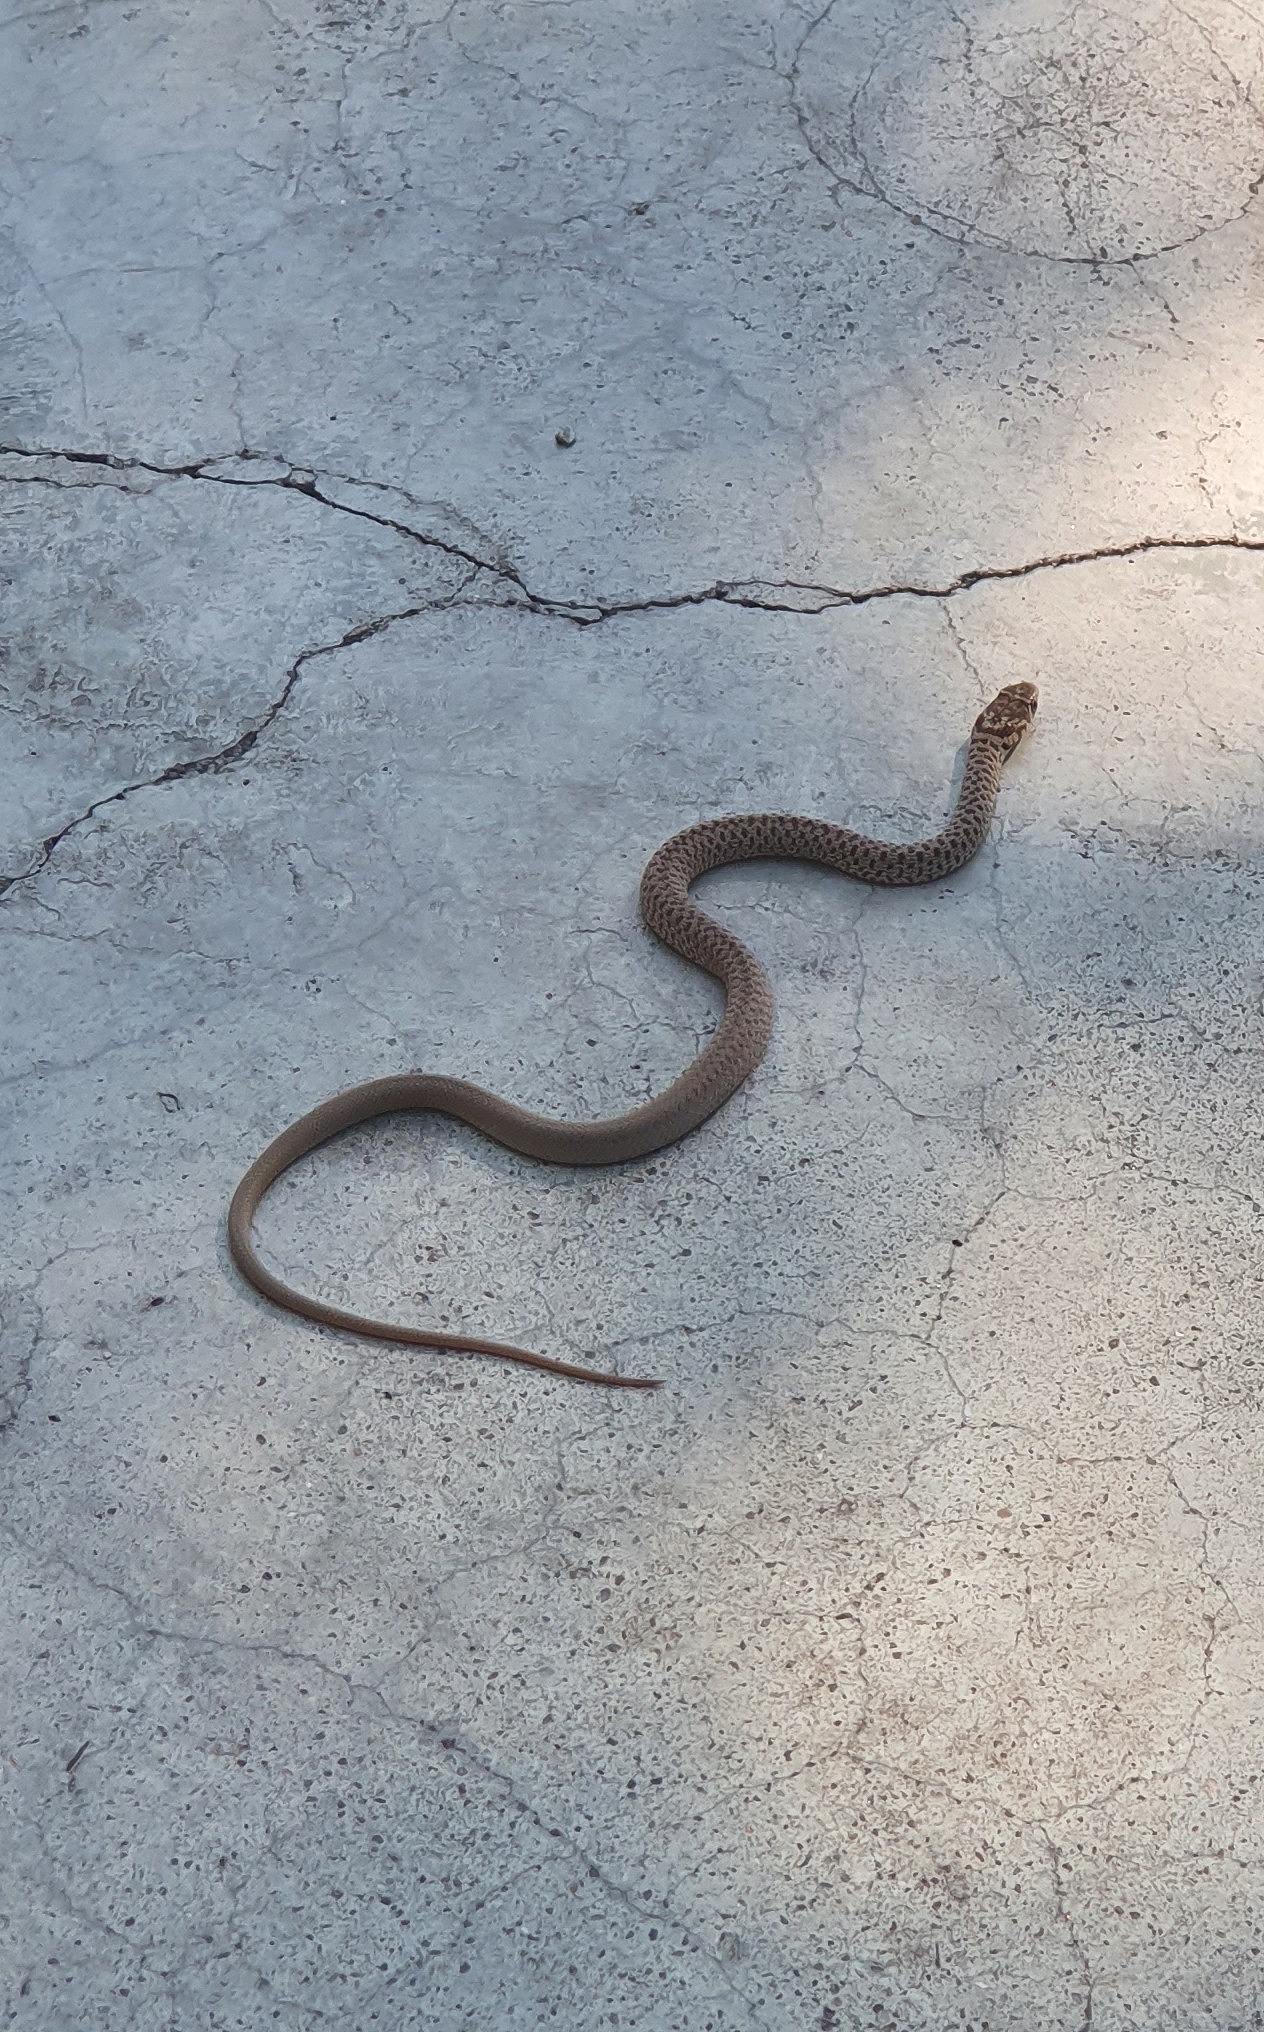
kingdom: Animalia
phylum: Chordata
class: Squamata
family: Colubridae
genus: Hierophis
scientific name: Hierophis gemonensis
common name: Balkan whip snake
